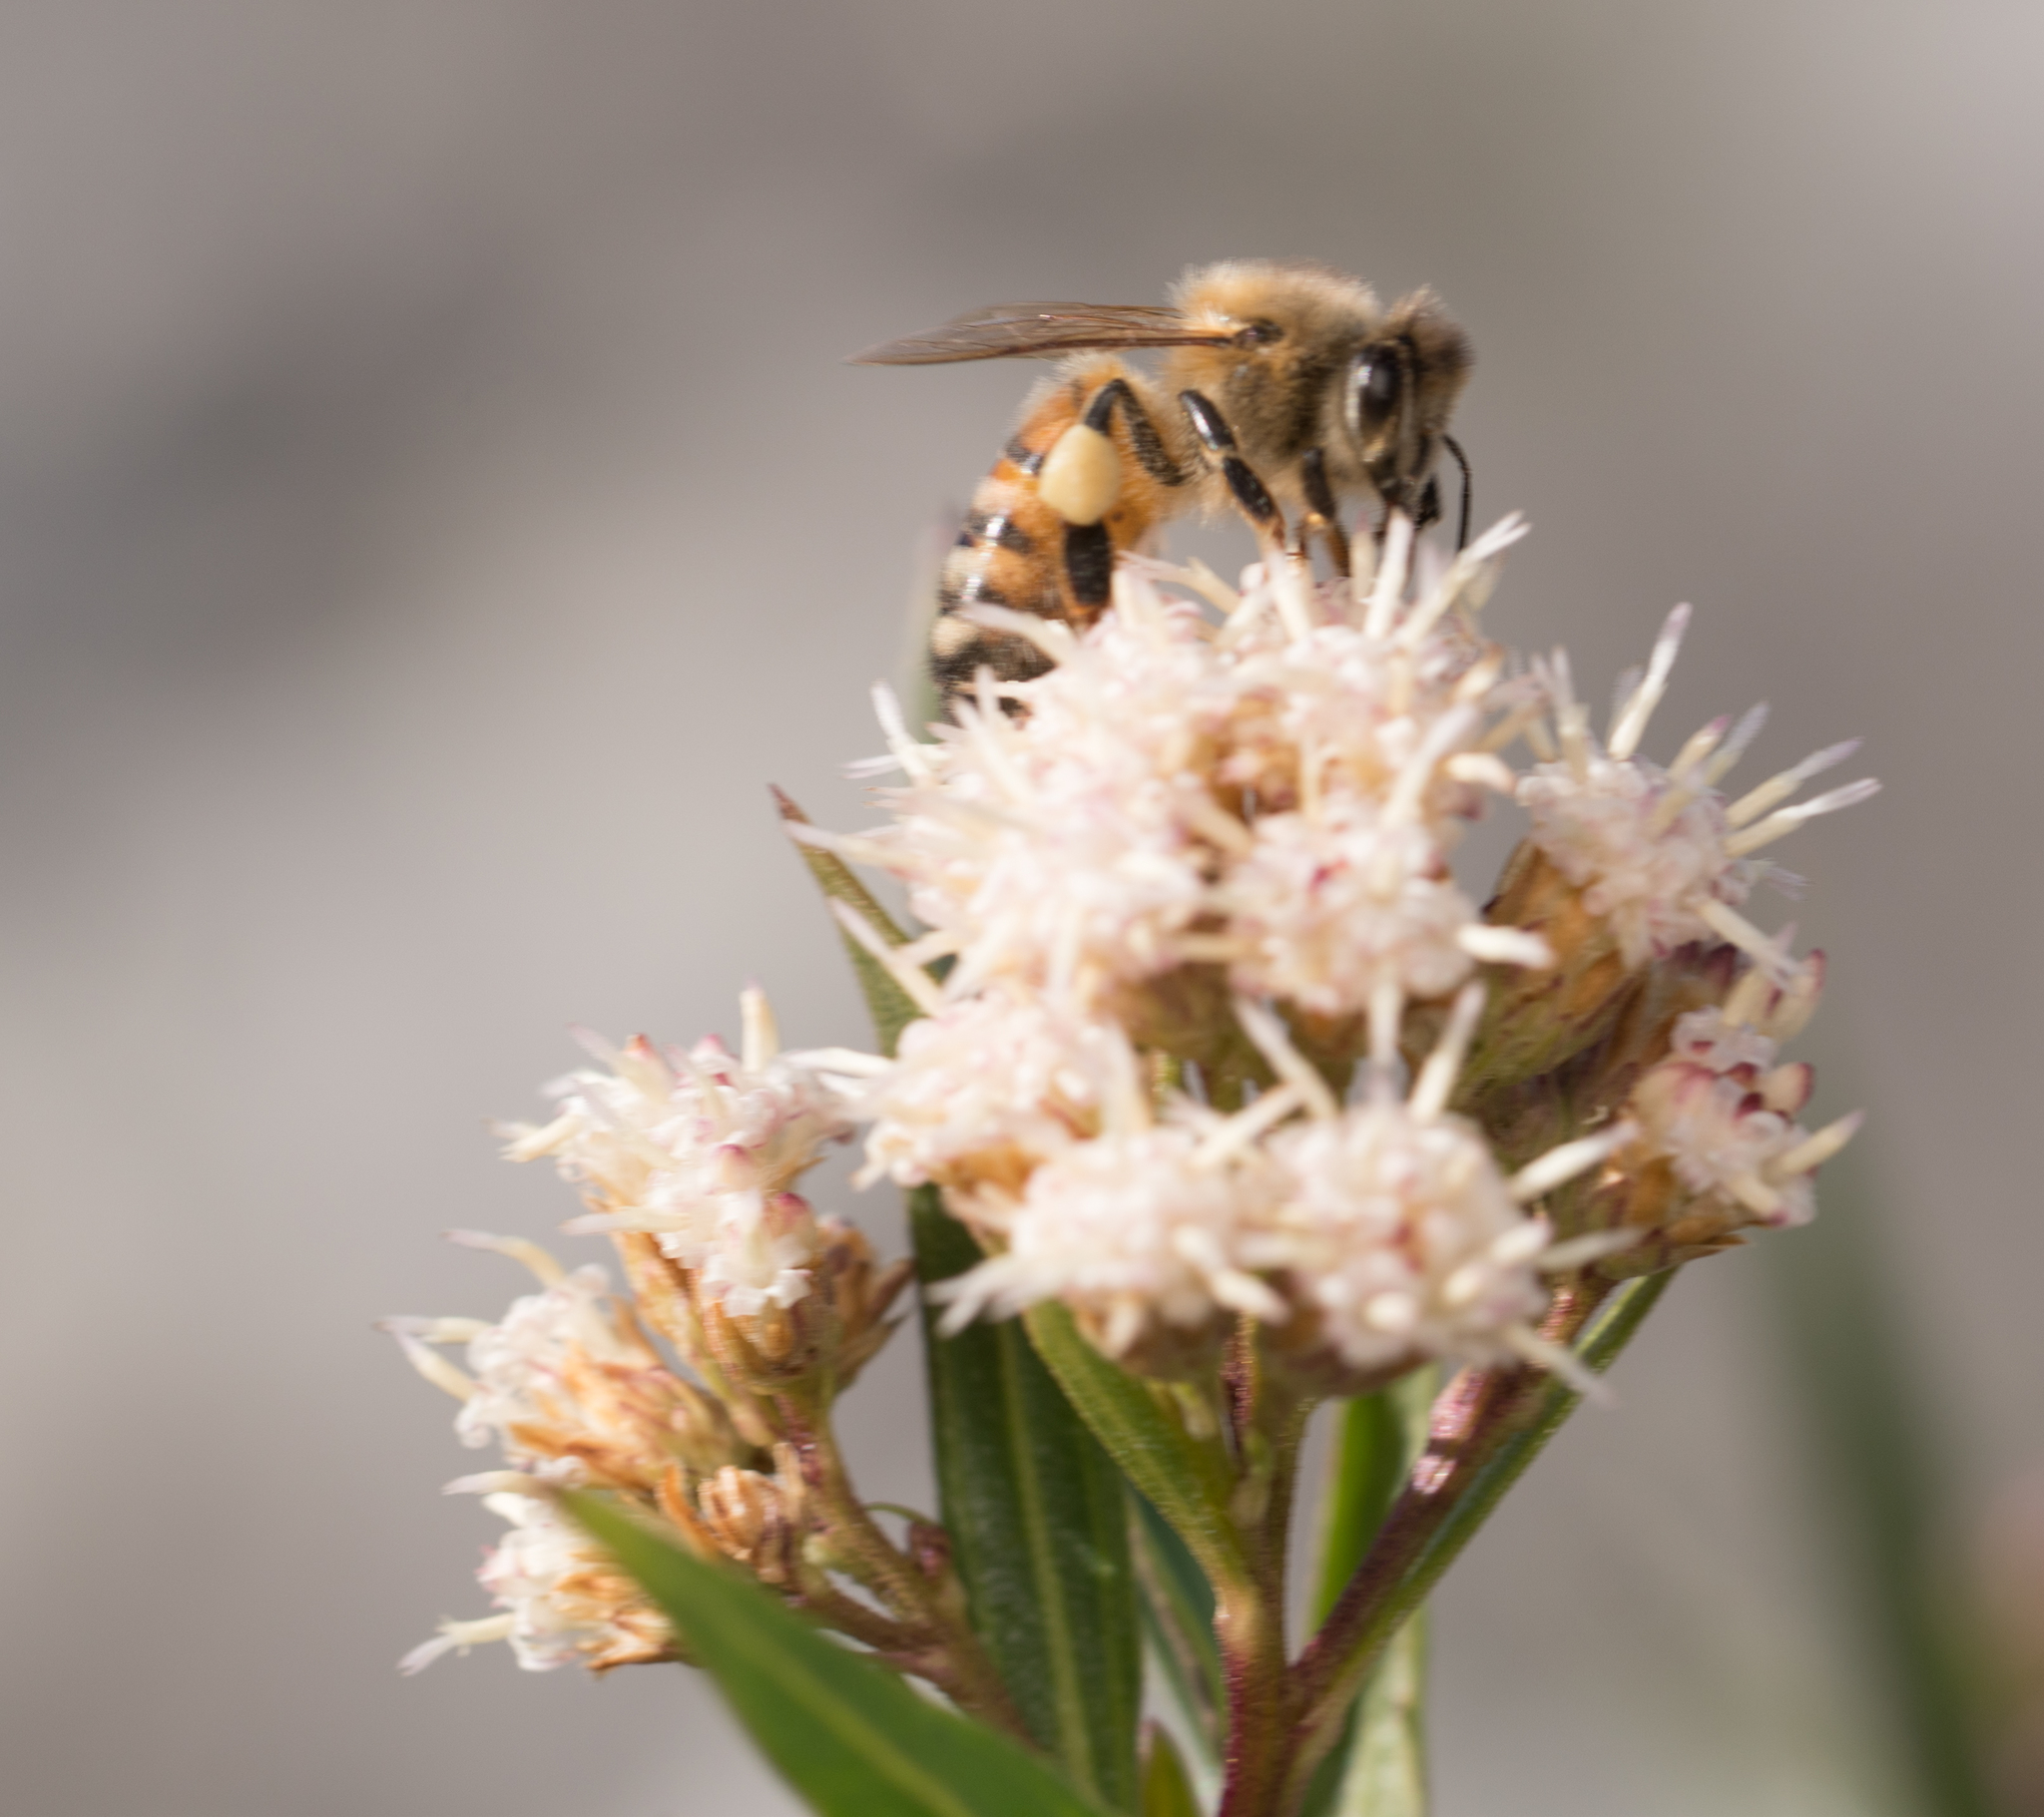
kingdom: Animalia
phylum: Arthropoda
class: Insecta
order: Hymenoptera
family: Apidae
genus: Apis
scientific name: Apis mellifera
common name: Honey bee
